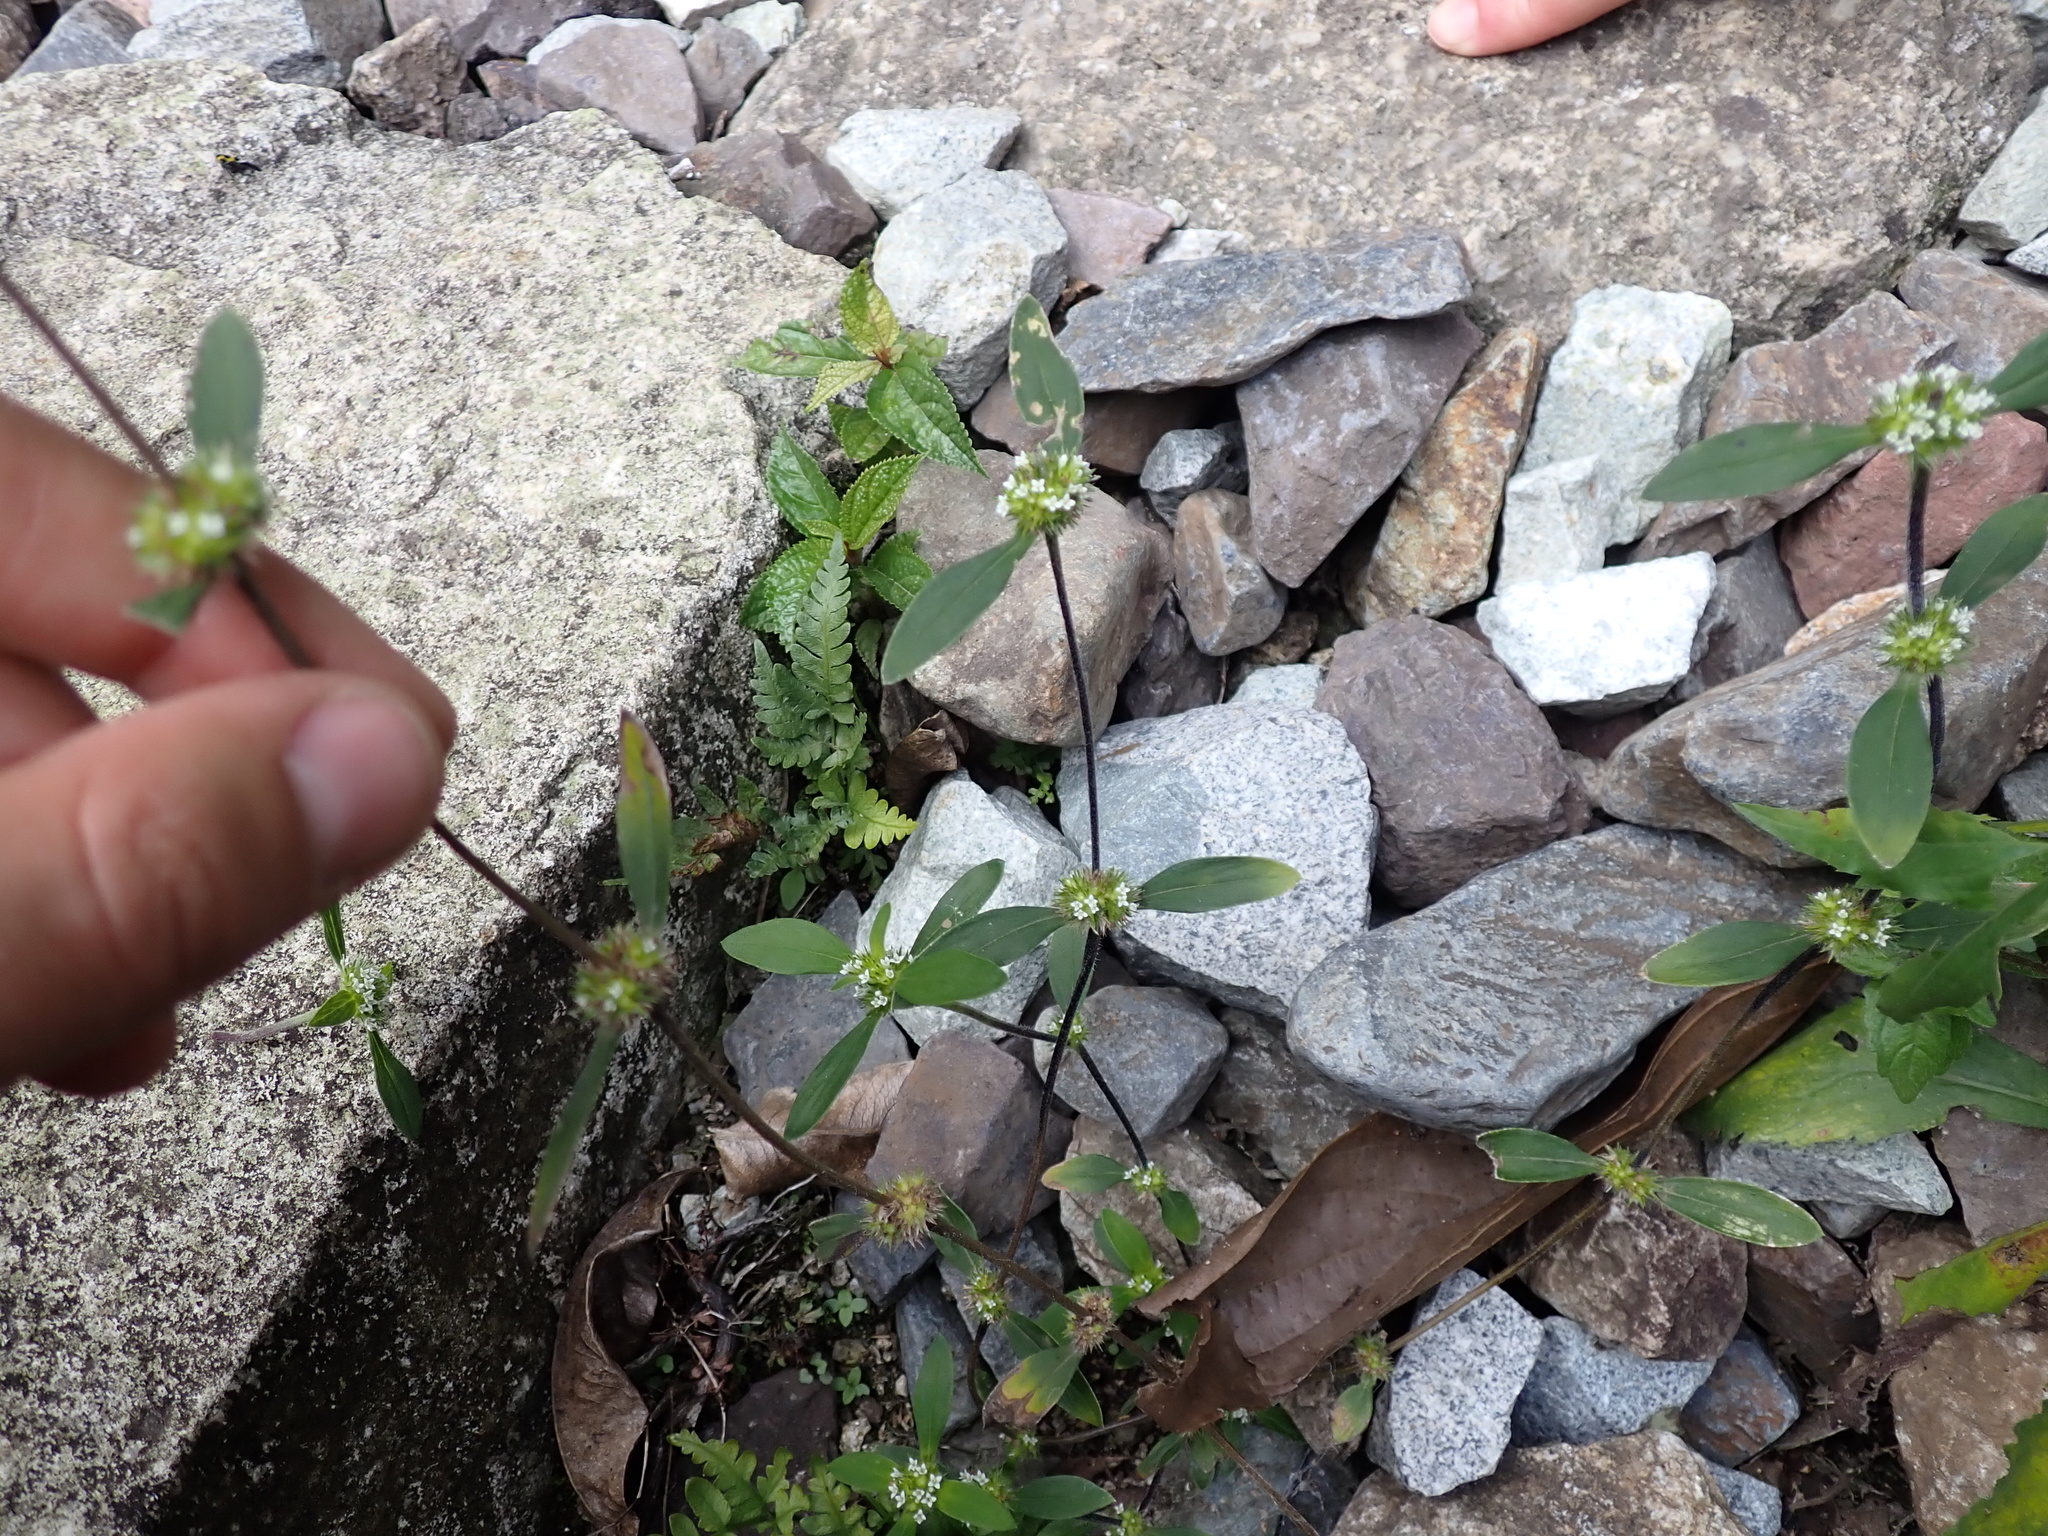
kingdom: Plantae
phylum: Tracheophyta
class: Magnoliopsida
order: Gentianales
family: Rubiaceae
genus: Mitracarpus
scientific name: Mitracarpus hirtus
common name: Tropical girdlepod
